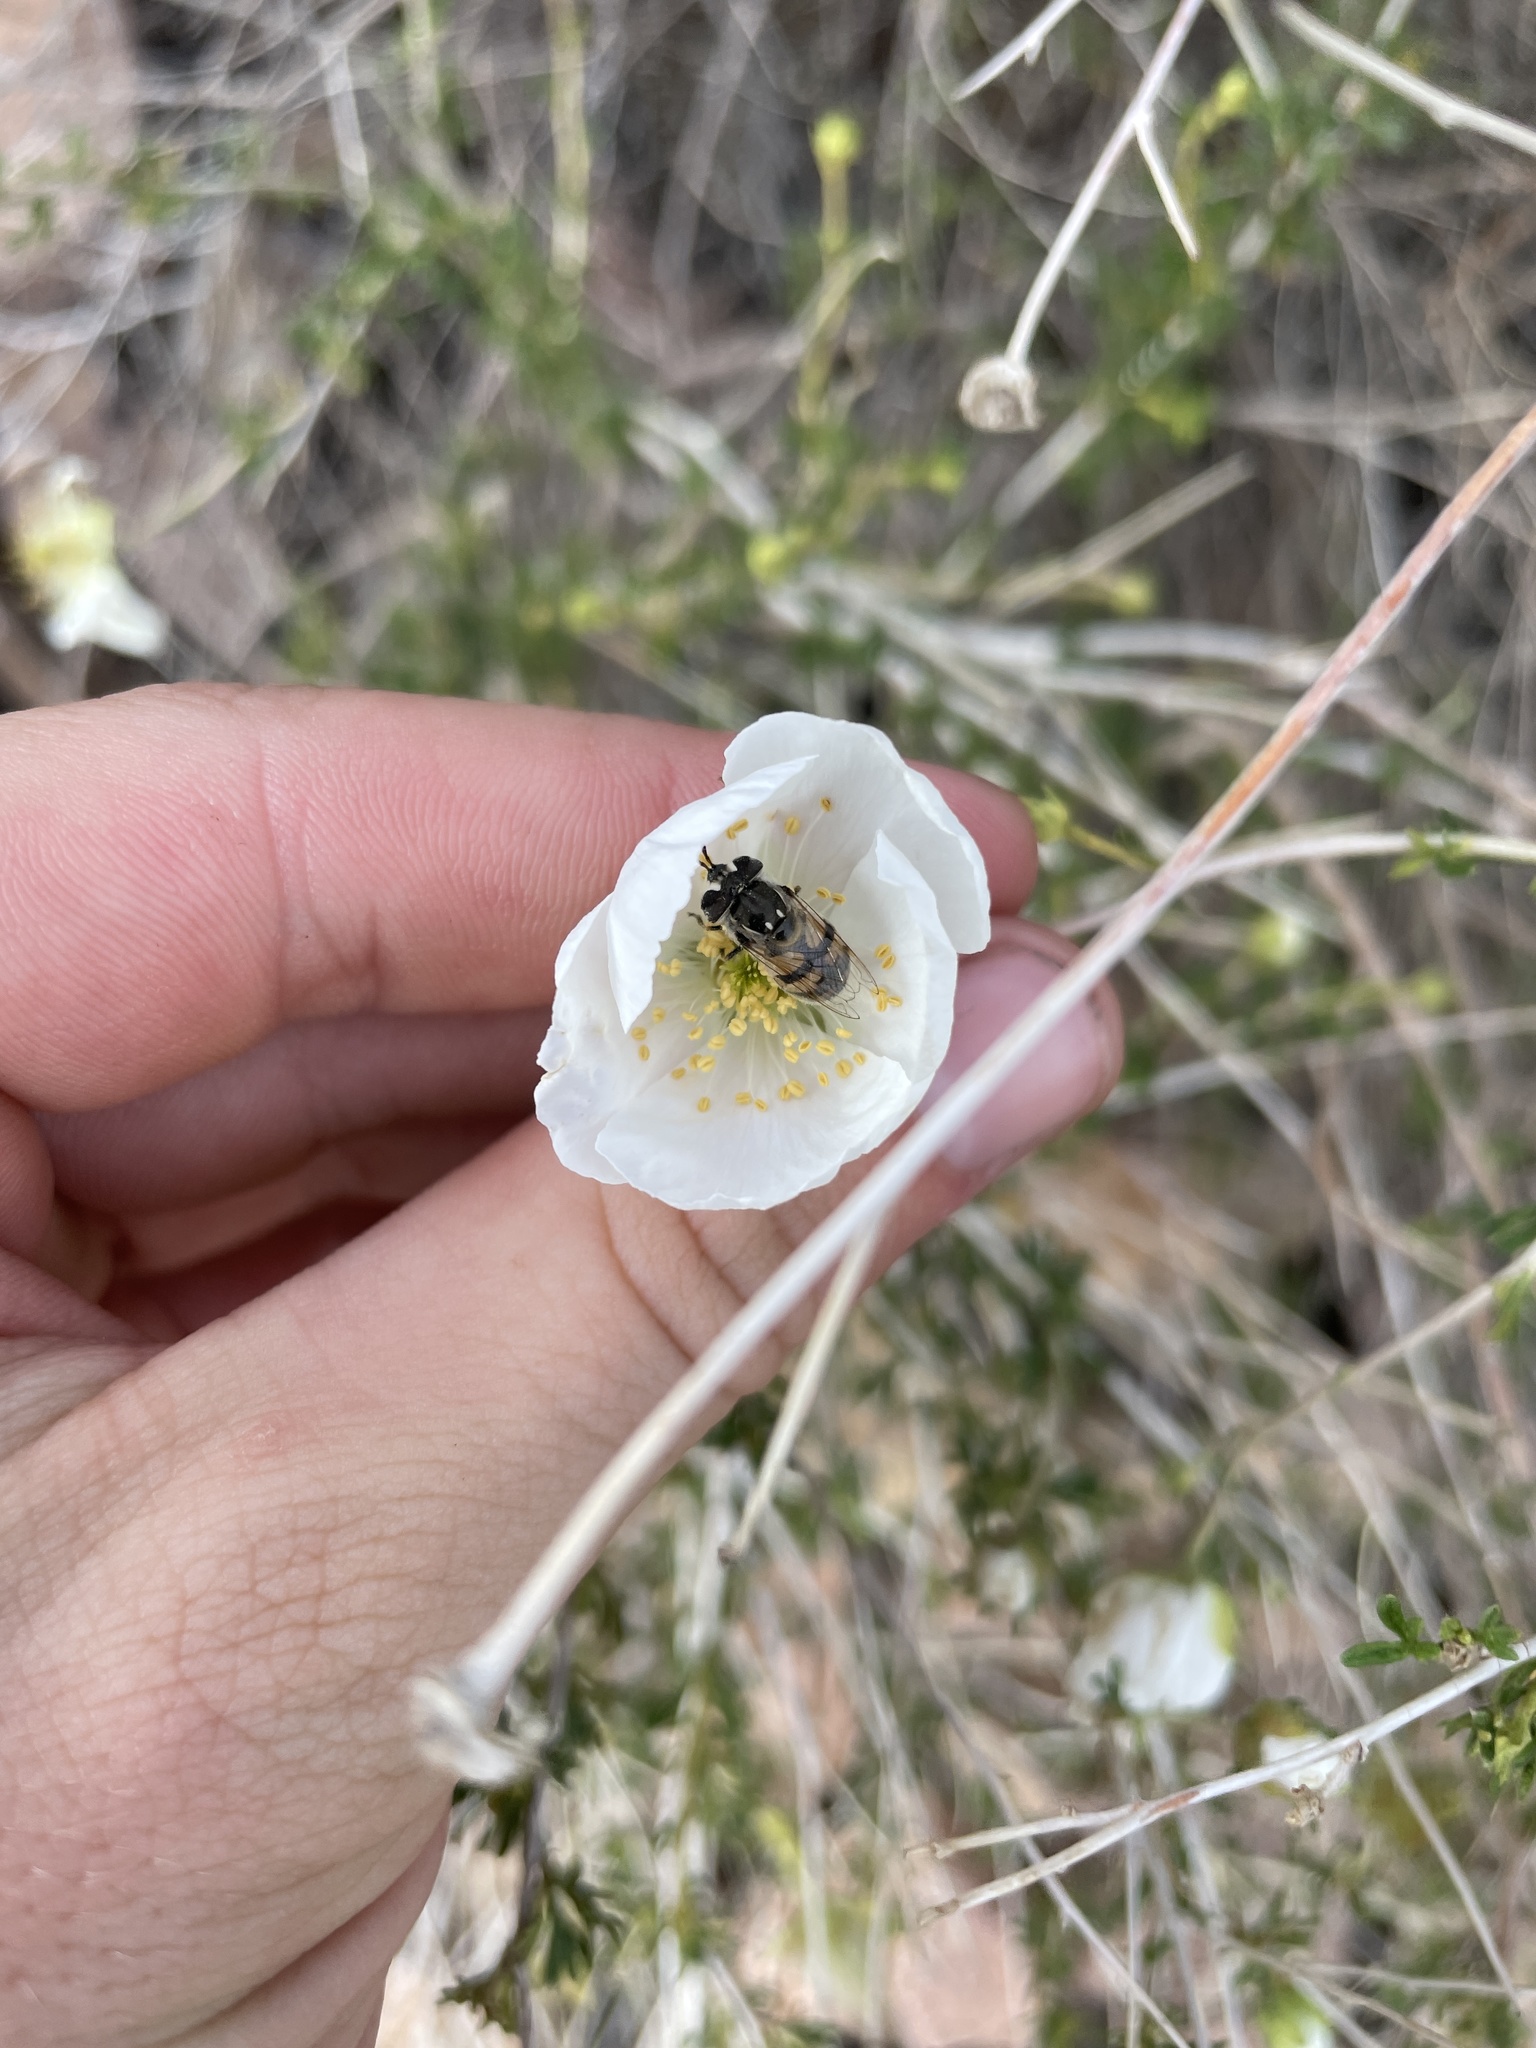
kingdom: Animalia
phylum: Arthropoda
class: Insecta
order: Diptera
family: Syrphidae
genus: Copestylum
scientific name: Copestylum
